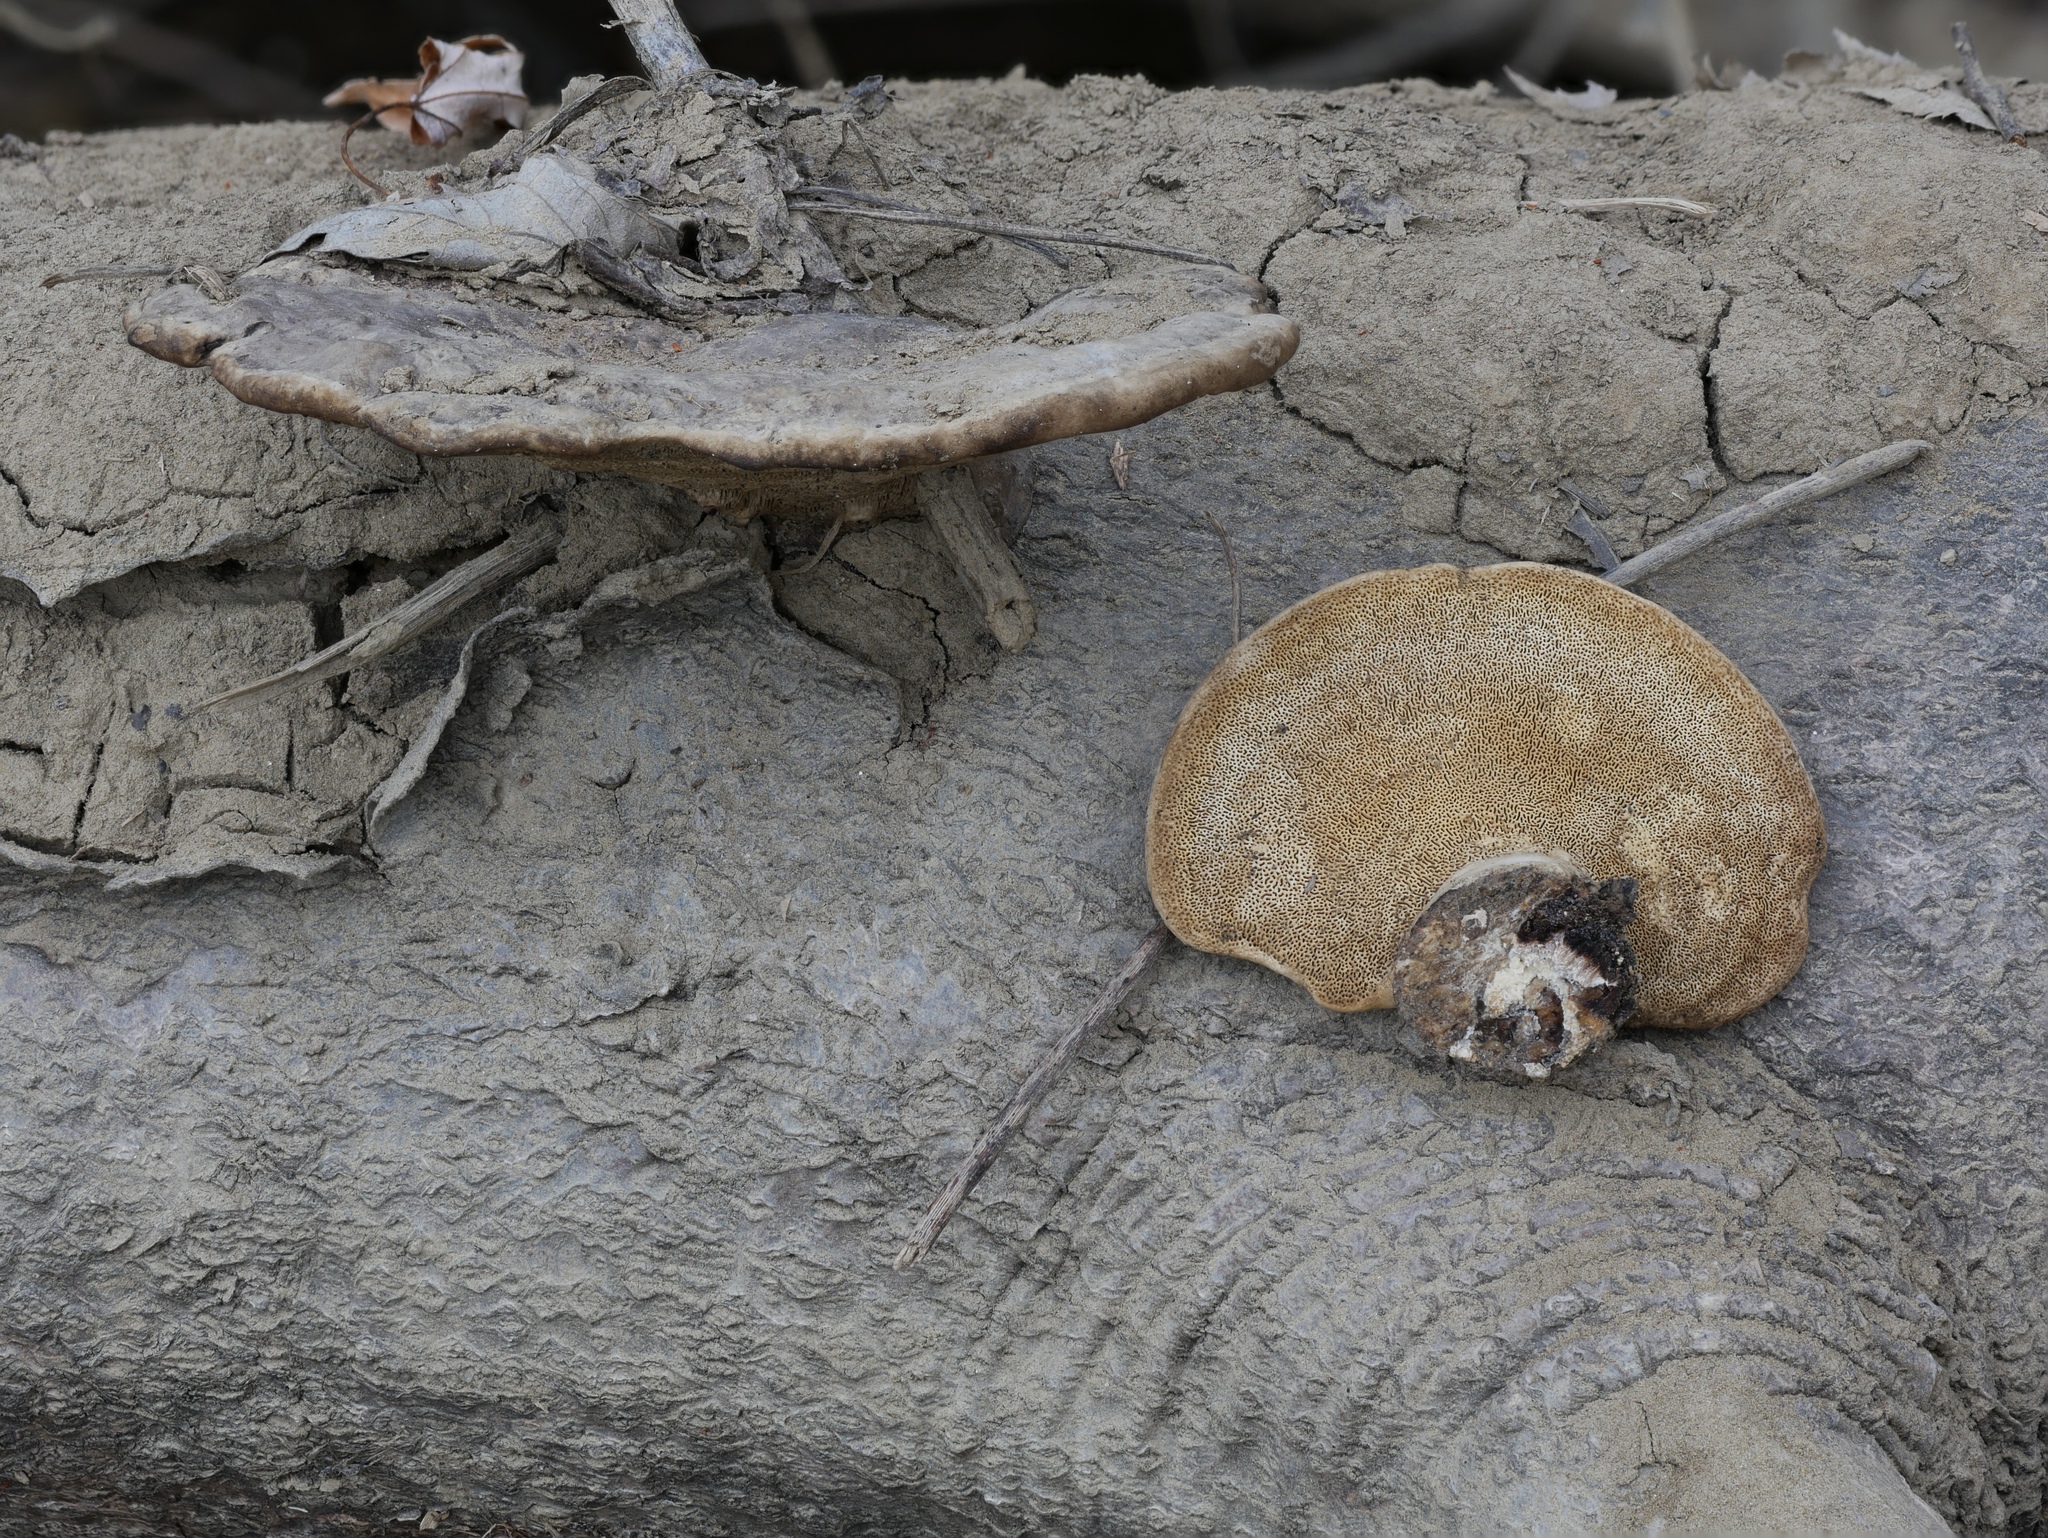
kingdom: Fungi
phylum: Basidiomycota
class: Agaricomycetes
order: Polyporales
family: Polyporaceae
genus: Trametes
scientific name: Trametes
